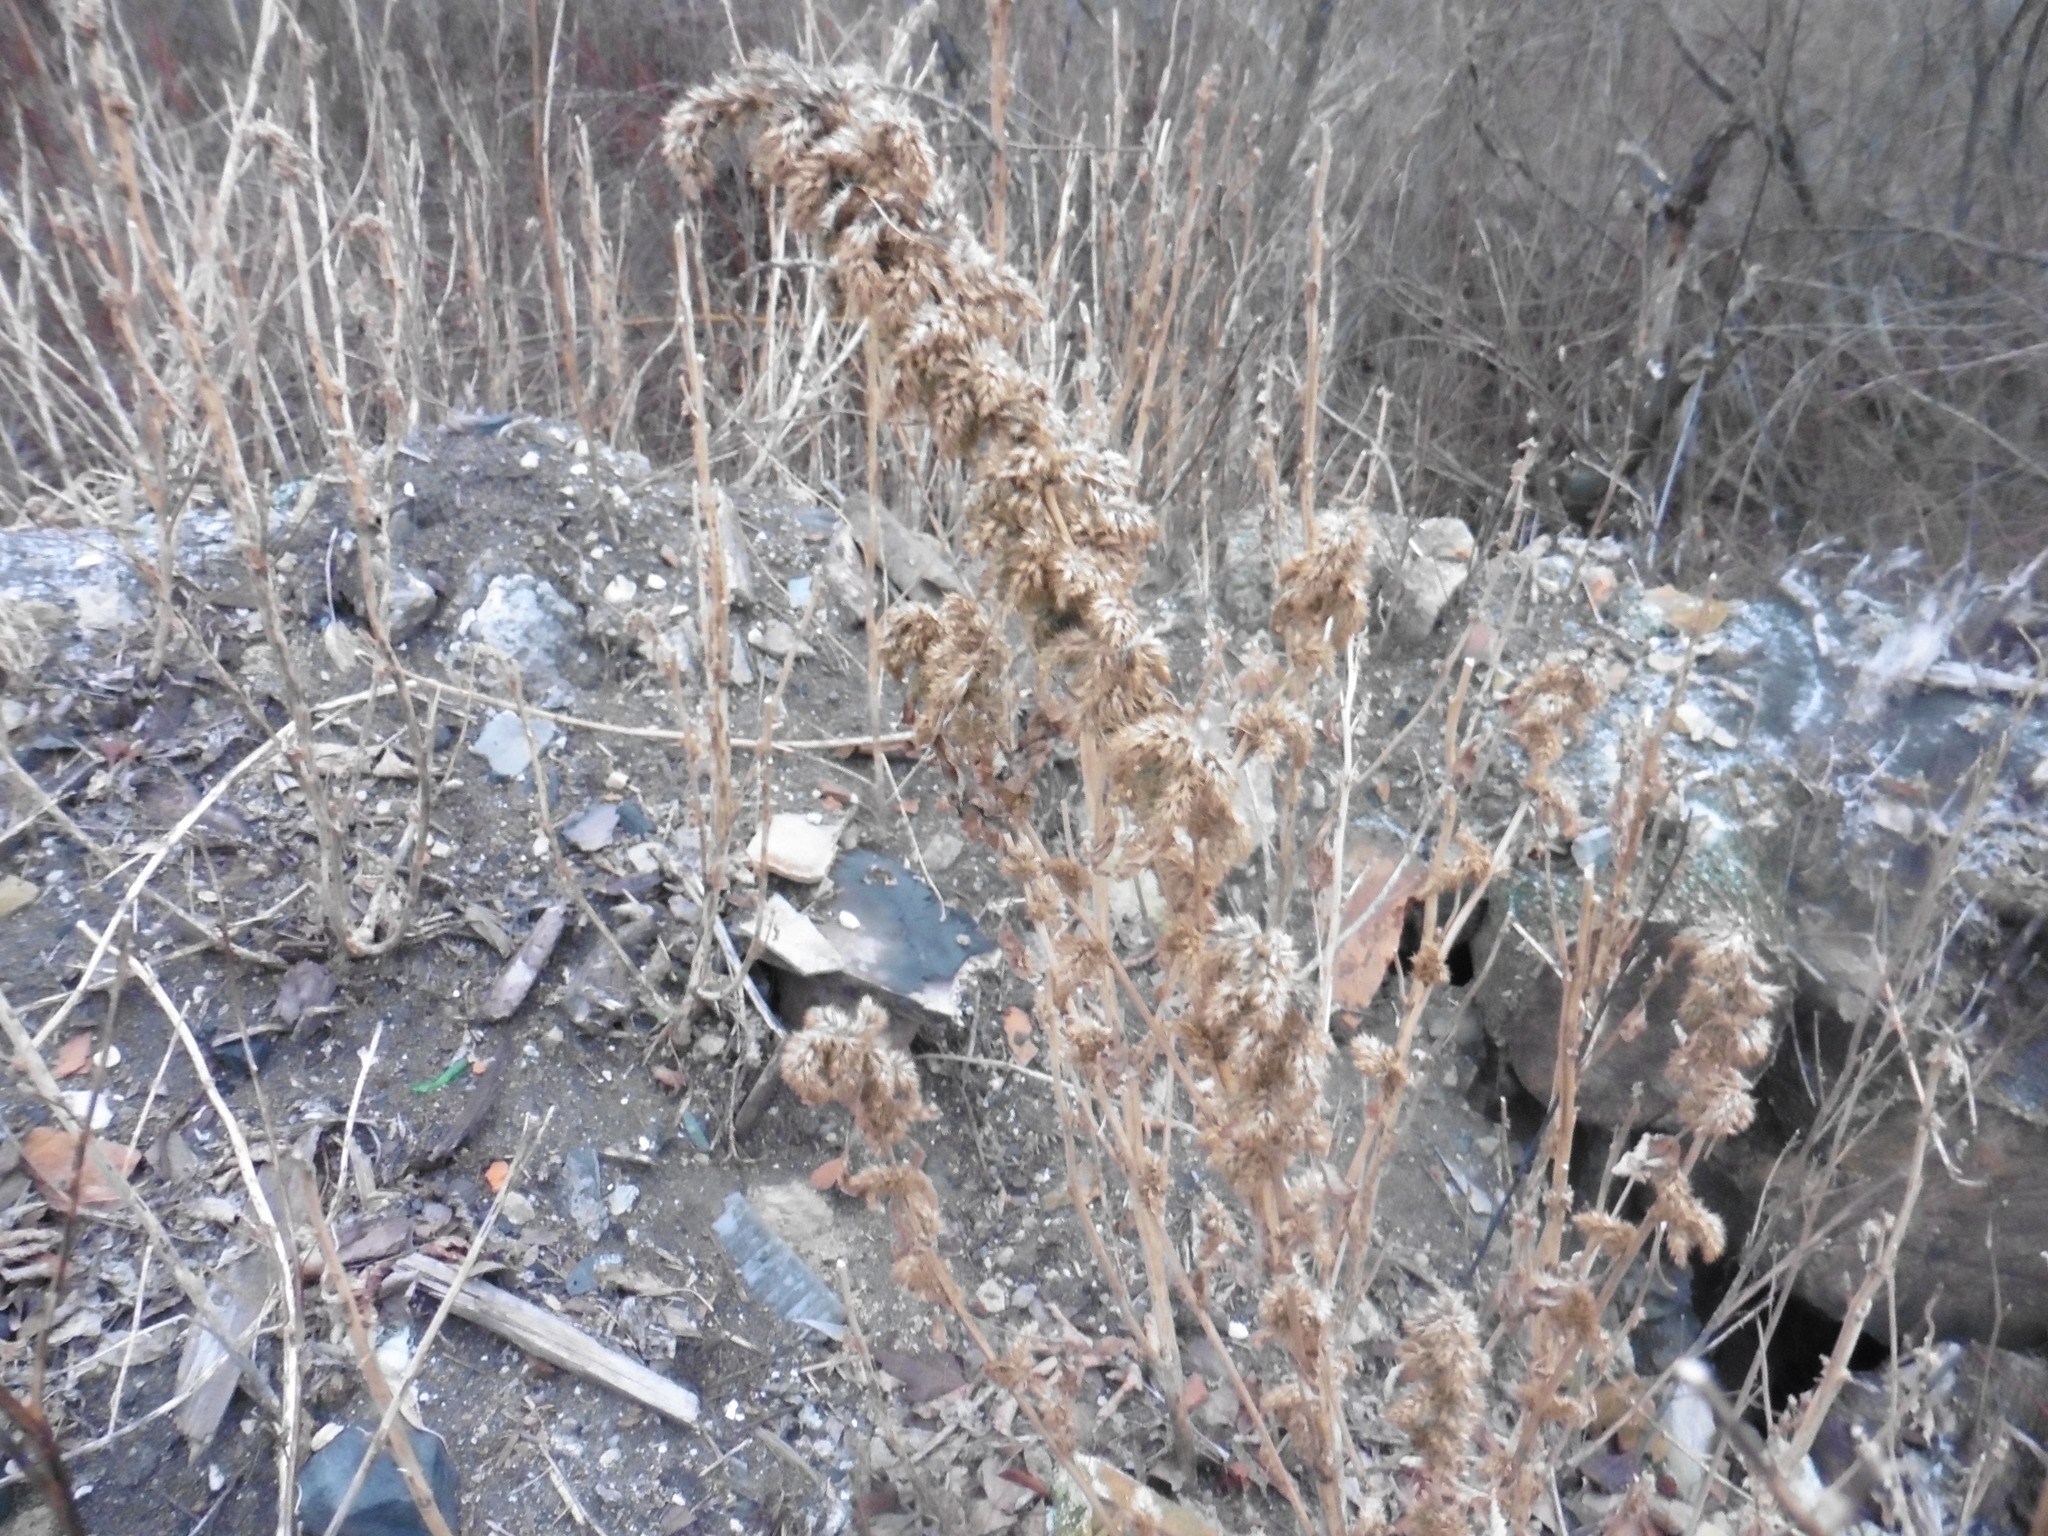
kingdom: Plantae
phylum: Tracheophyta
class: Magnoliopsida
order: Caryophyllales
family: Amaranthaceae
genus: Amaranthus
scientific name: Amaranthus retroflexus
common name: Redroot amaranth
